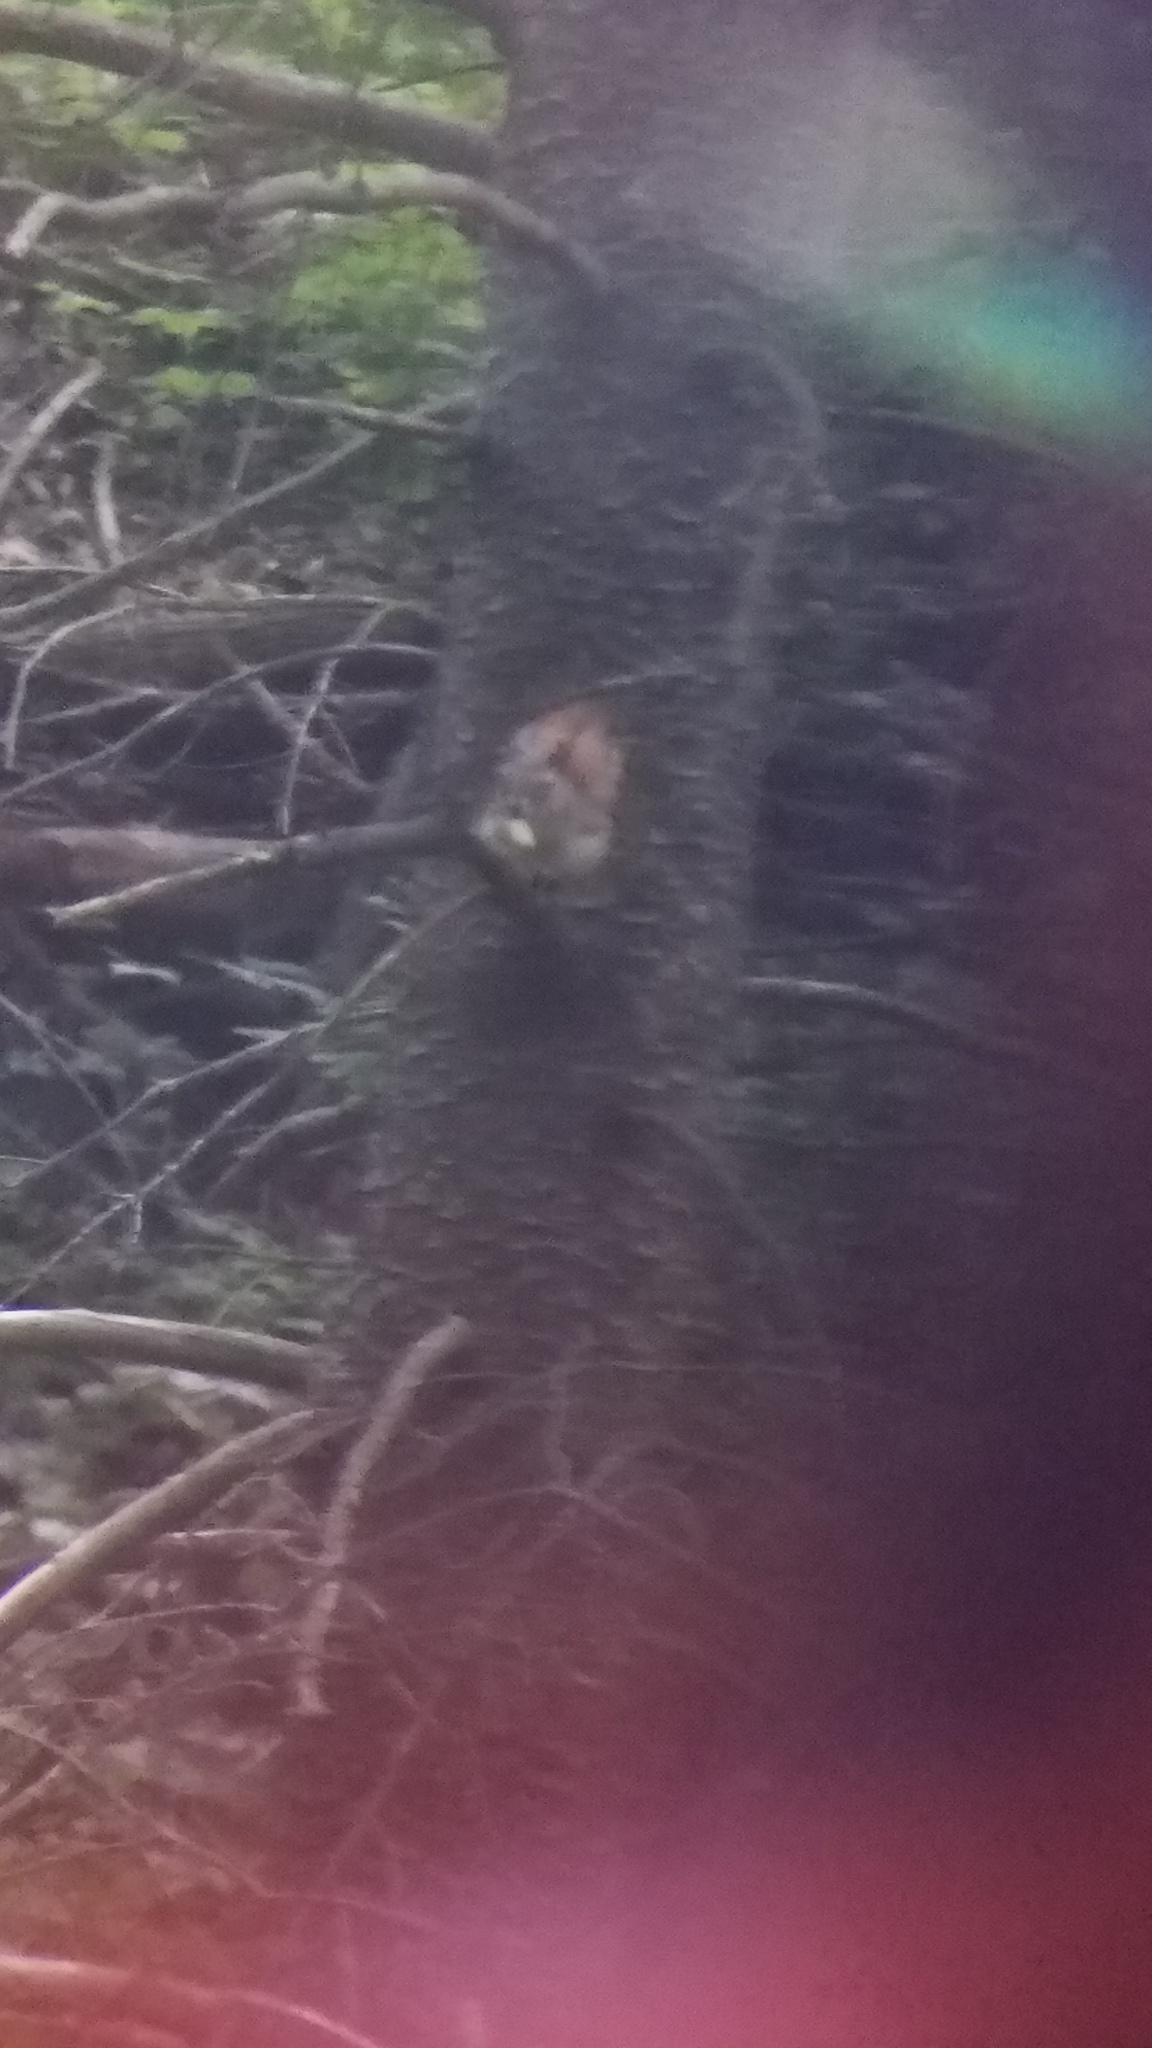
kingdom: Animalia
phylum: Chordata
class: Mammalia
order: Rodentia
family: Sciuridae
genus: Tamiasciurus
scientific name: Tamiasciurus hudsonicus
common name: Red squirrel
